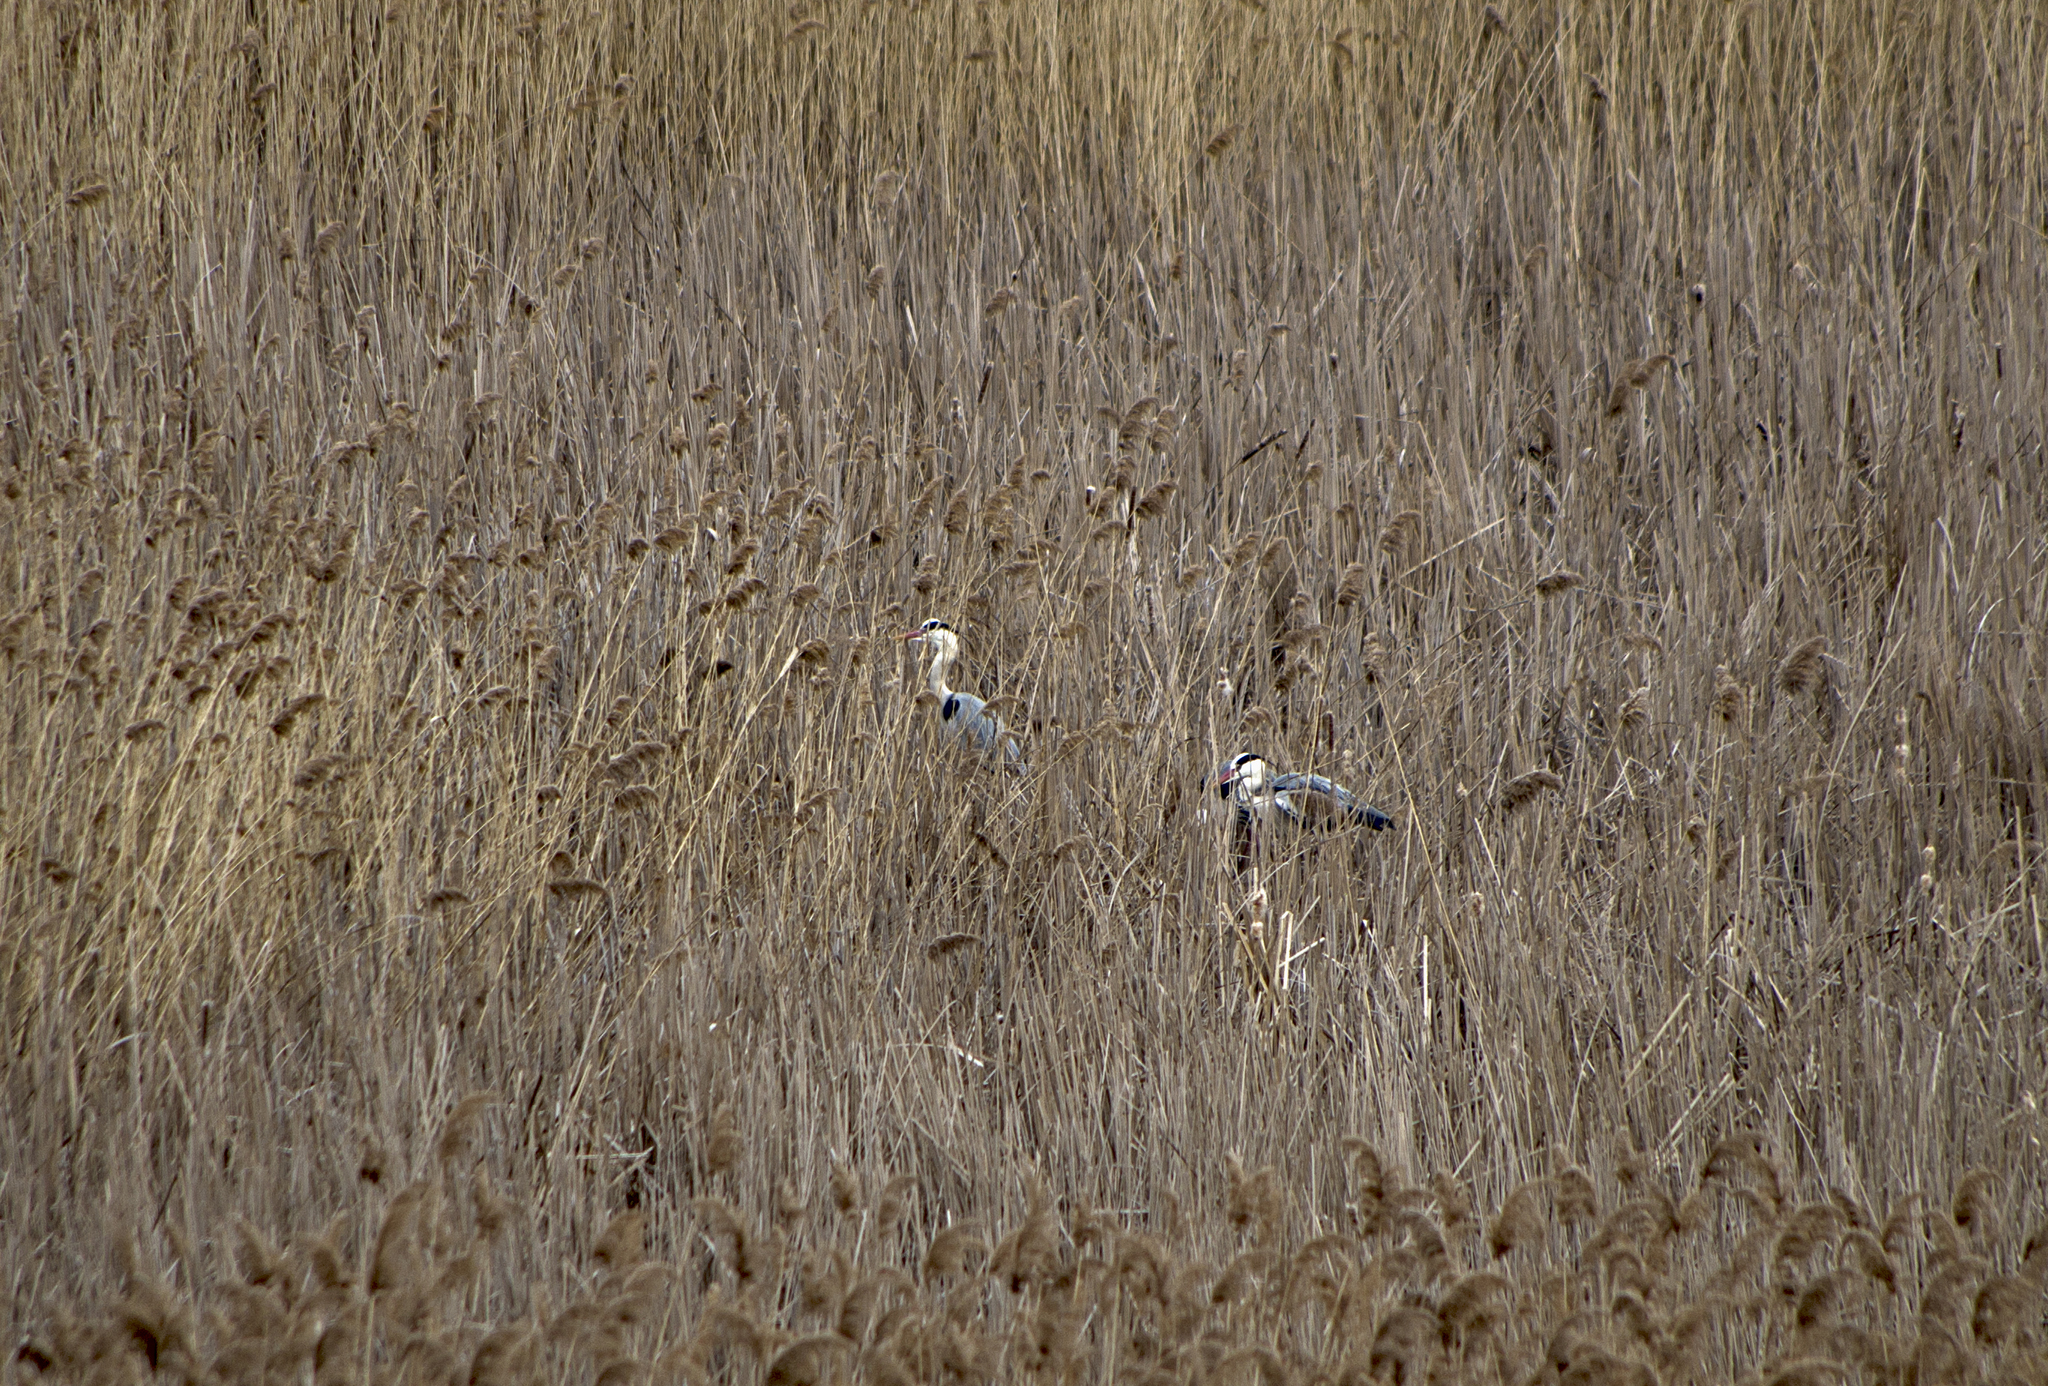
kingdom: Animalia
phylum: Chordata
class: Aves
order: Pelecaniformes
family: Ardeidae
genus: Ardea
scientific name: Ardea cinerea
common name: Grey heron
